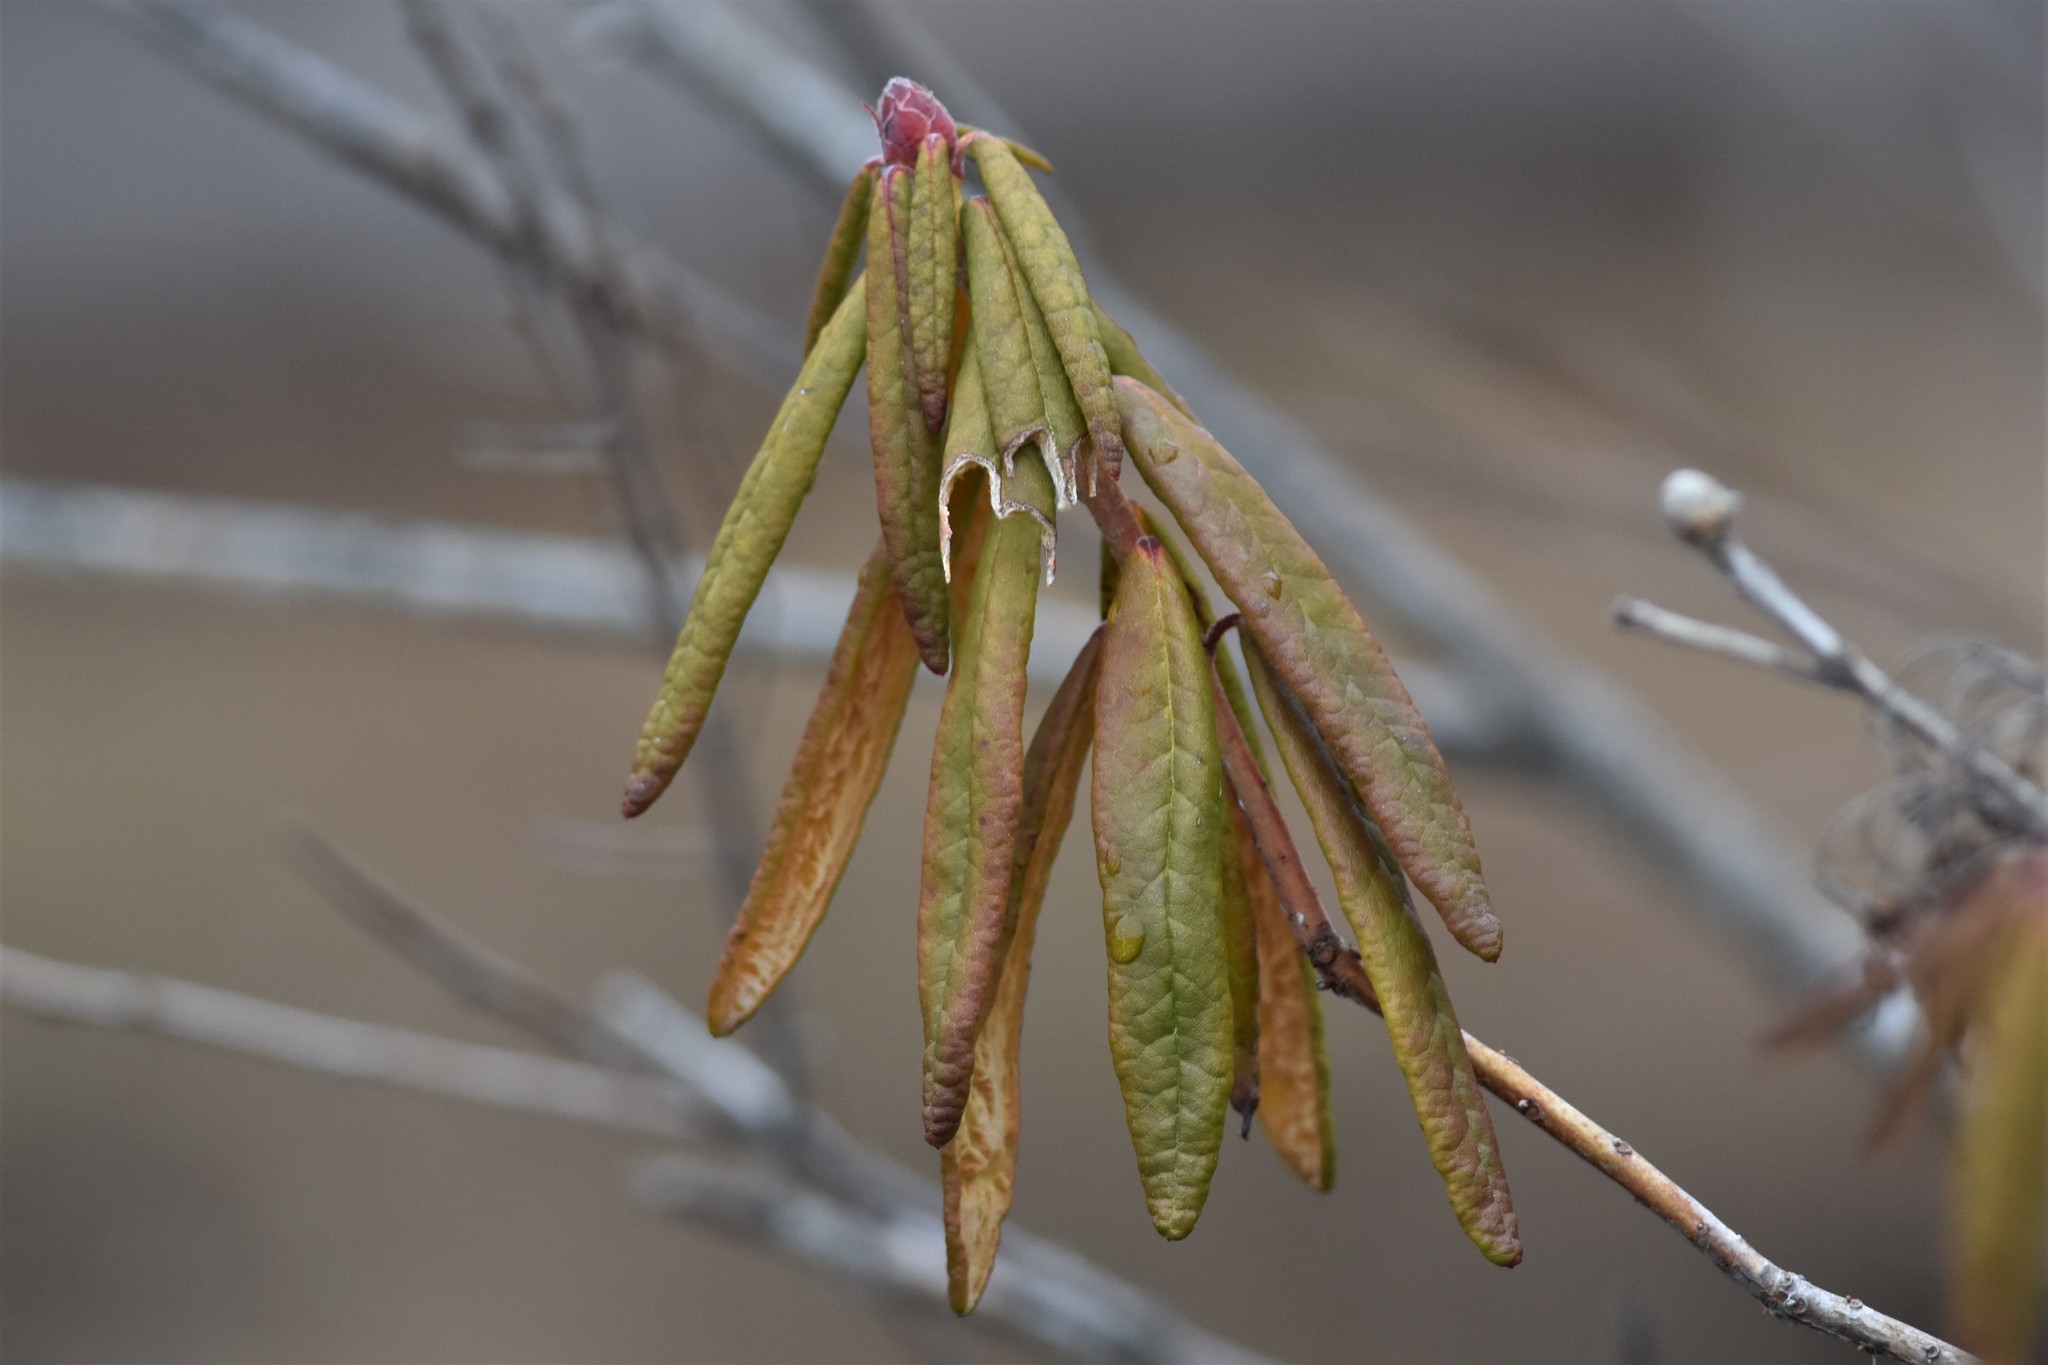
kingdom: Plantae
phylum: Tracheophyta
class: Magnoliopsida
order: Ericales
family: Ericaceae
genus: Rhododendron
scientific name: Rhododendron groenlandicum
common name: Bog labrador tea
